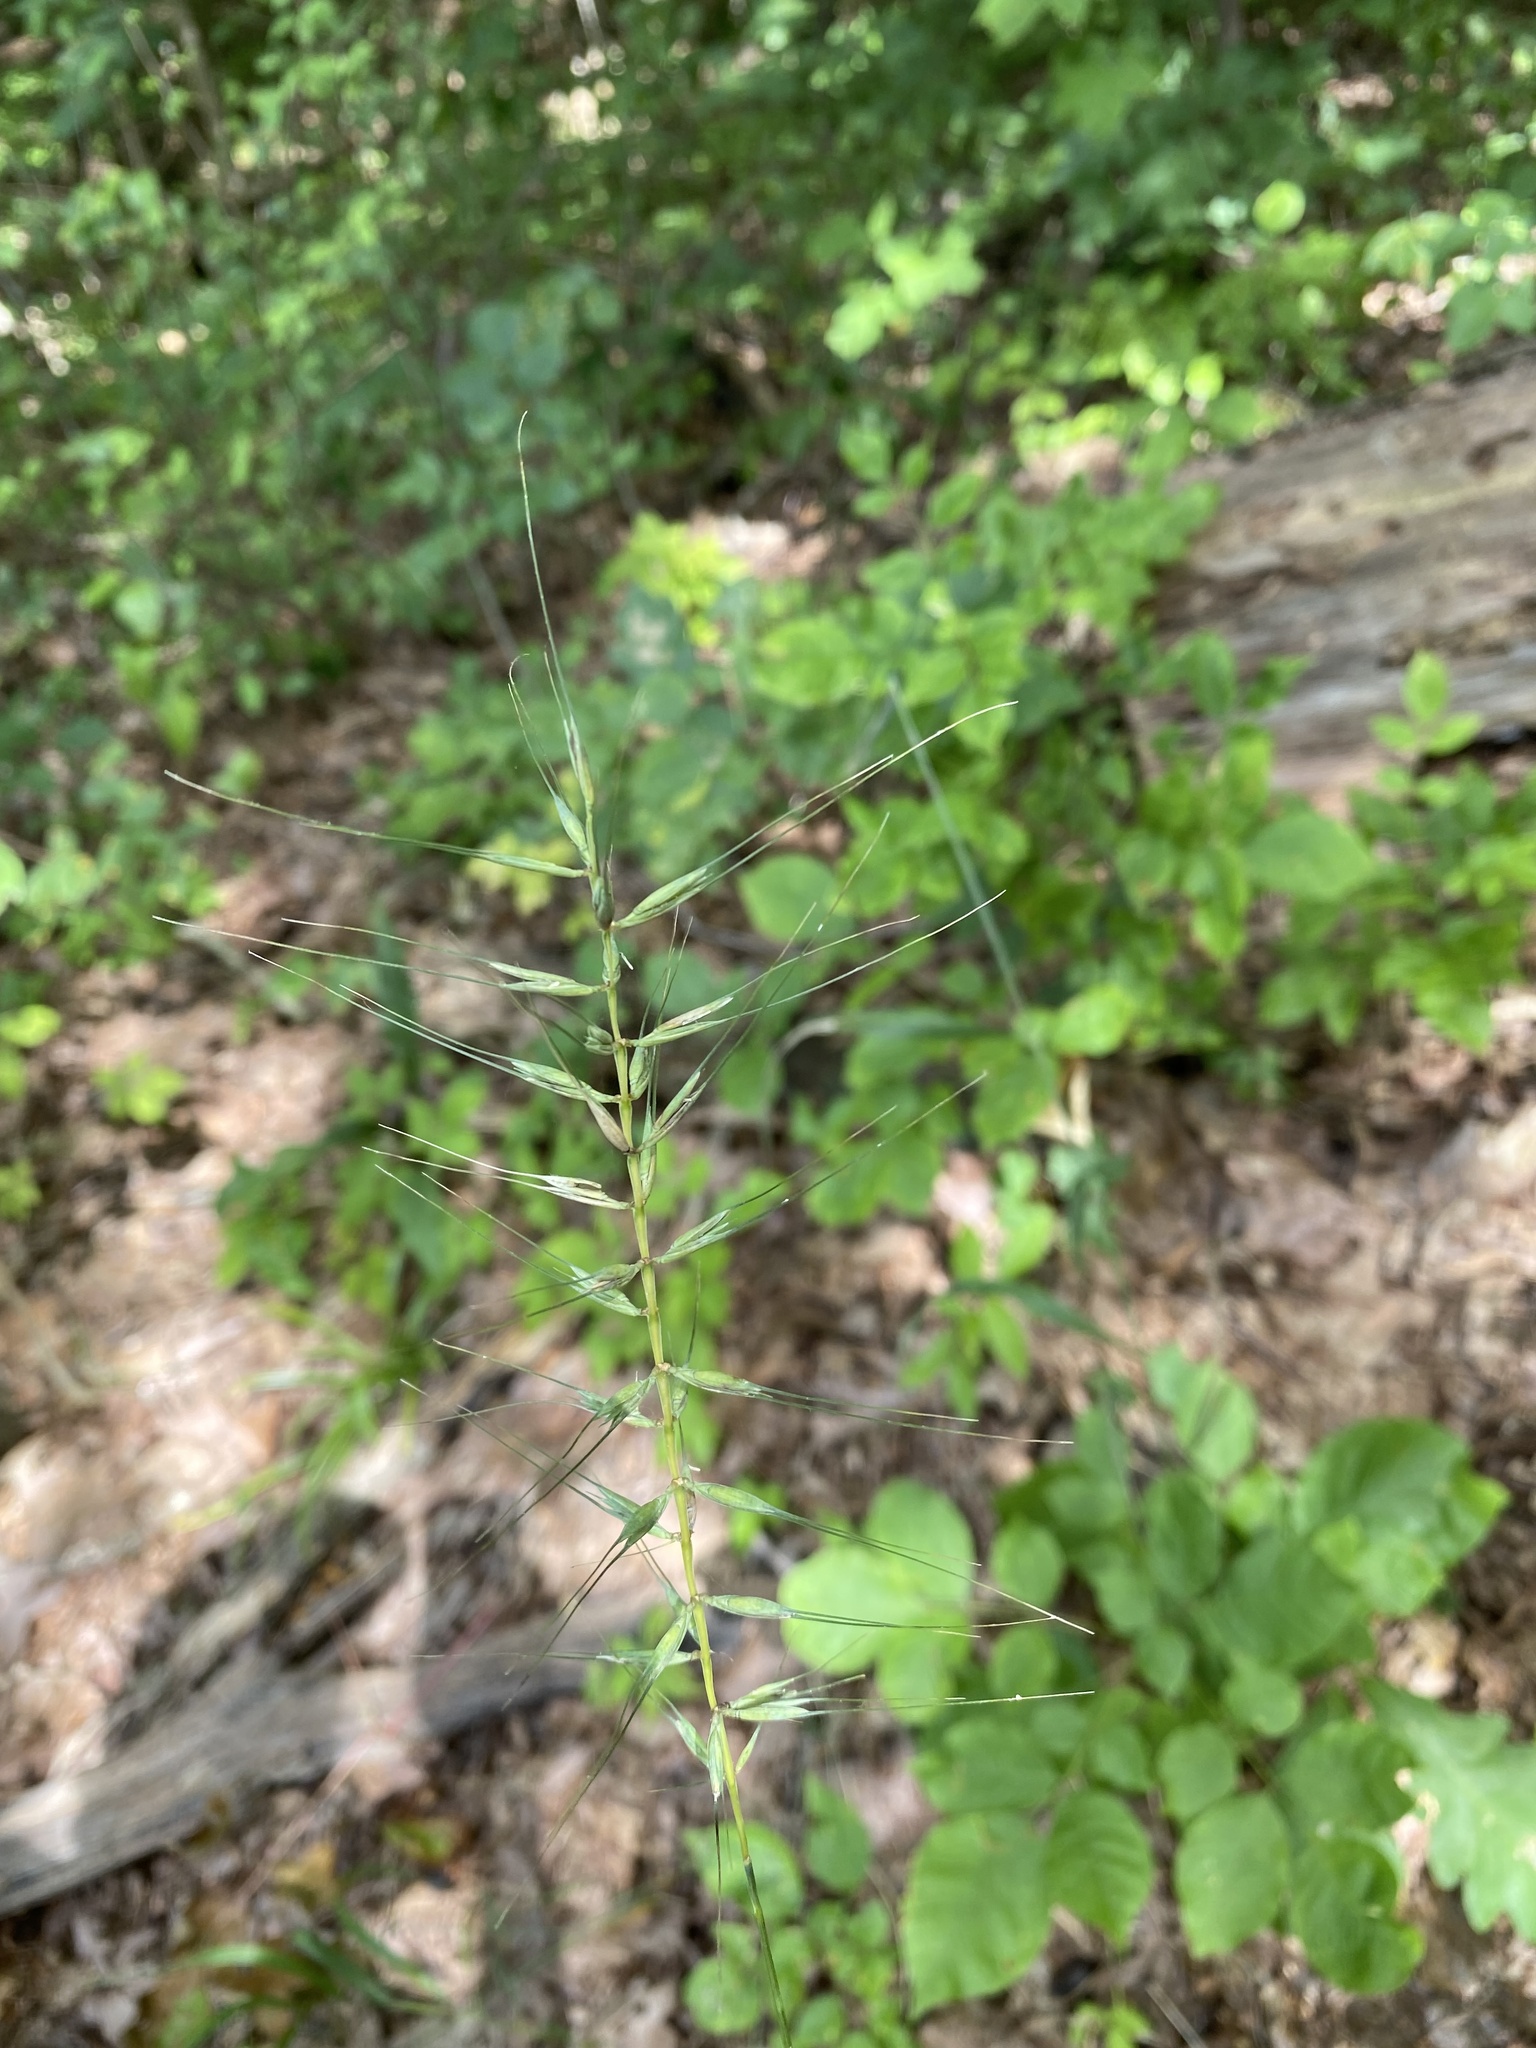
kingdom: Plantae
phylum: Tracheophyta
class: Liliopsida
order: Poales
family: Poaceae
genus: Elymus
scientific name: Elymus hystrix
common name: Bottlebrush grass
